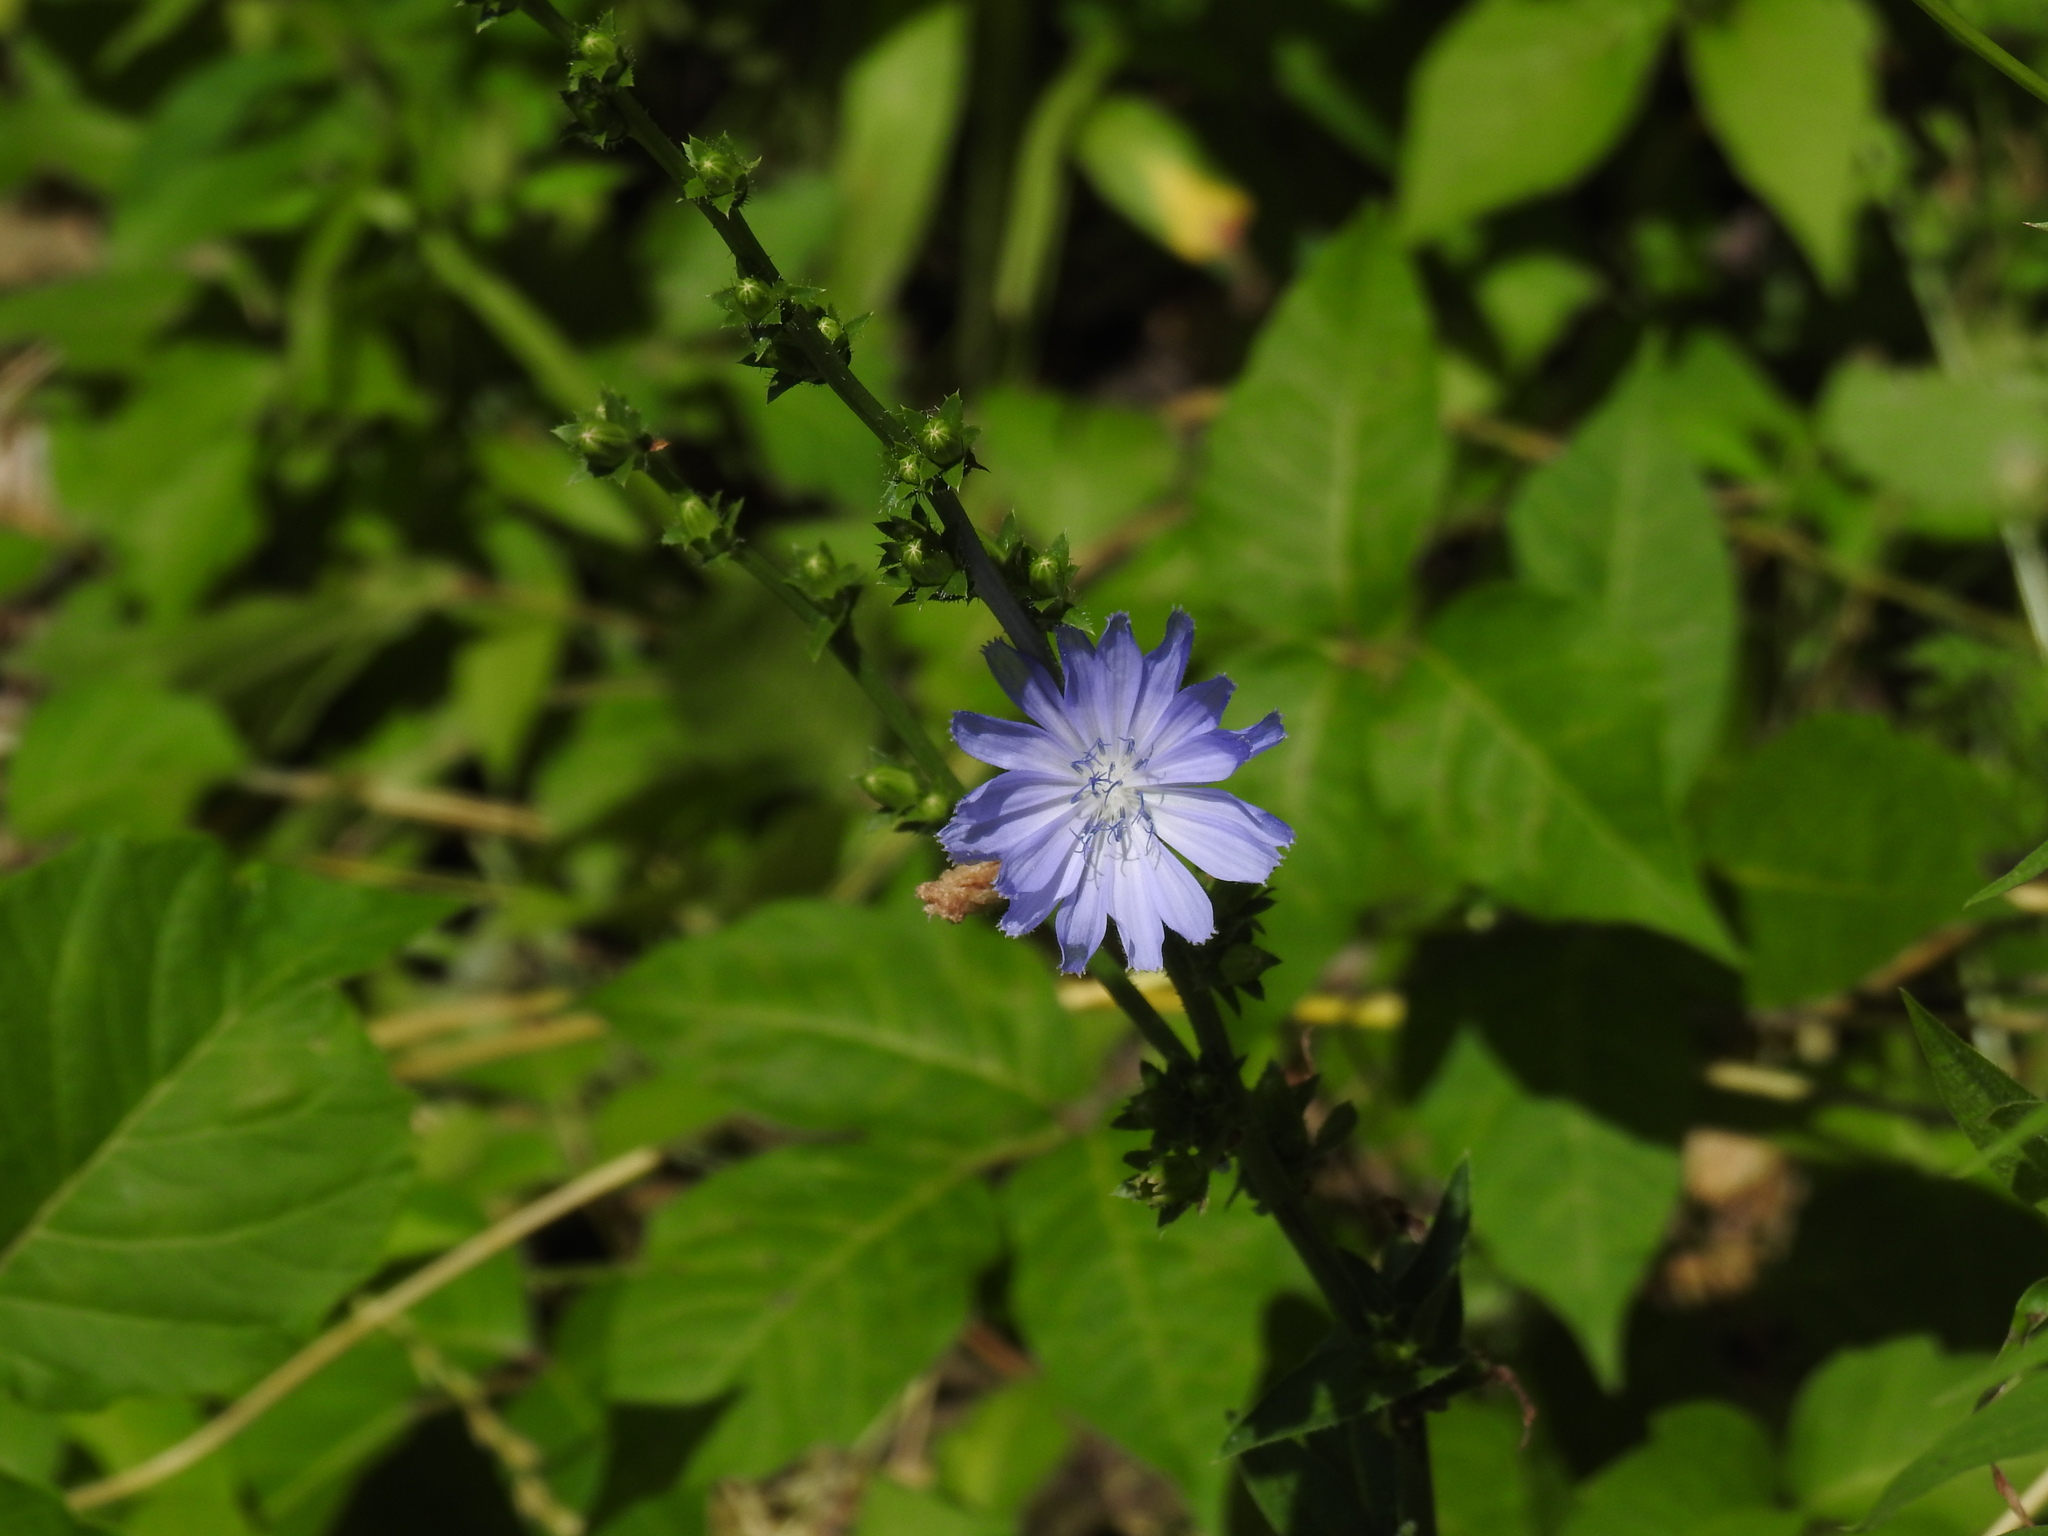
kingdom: Plantae
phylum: Tracheophyta
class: Magnoliopsida
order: Asterales
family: Asteraceae
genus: Cichorium
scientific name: Cichorium intybus
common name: Chicory
